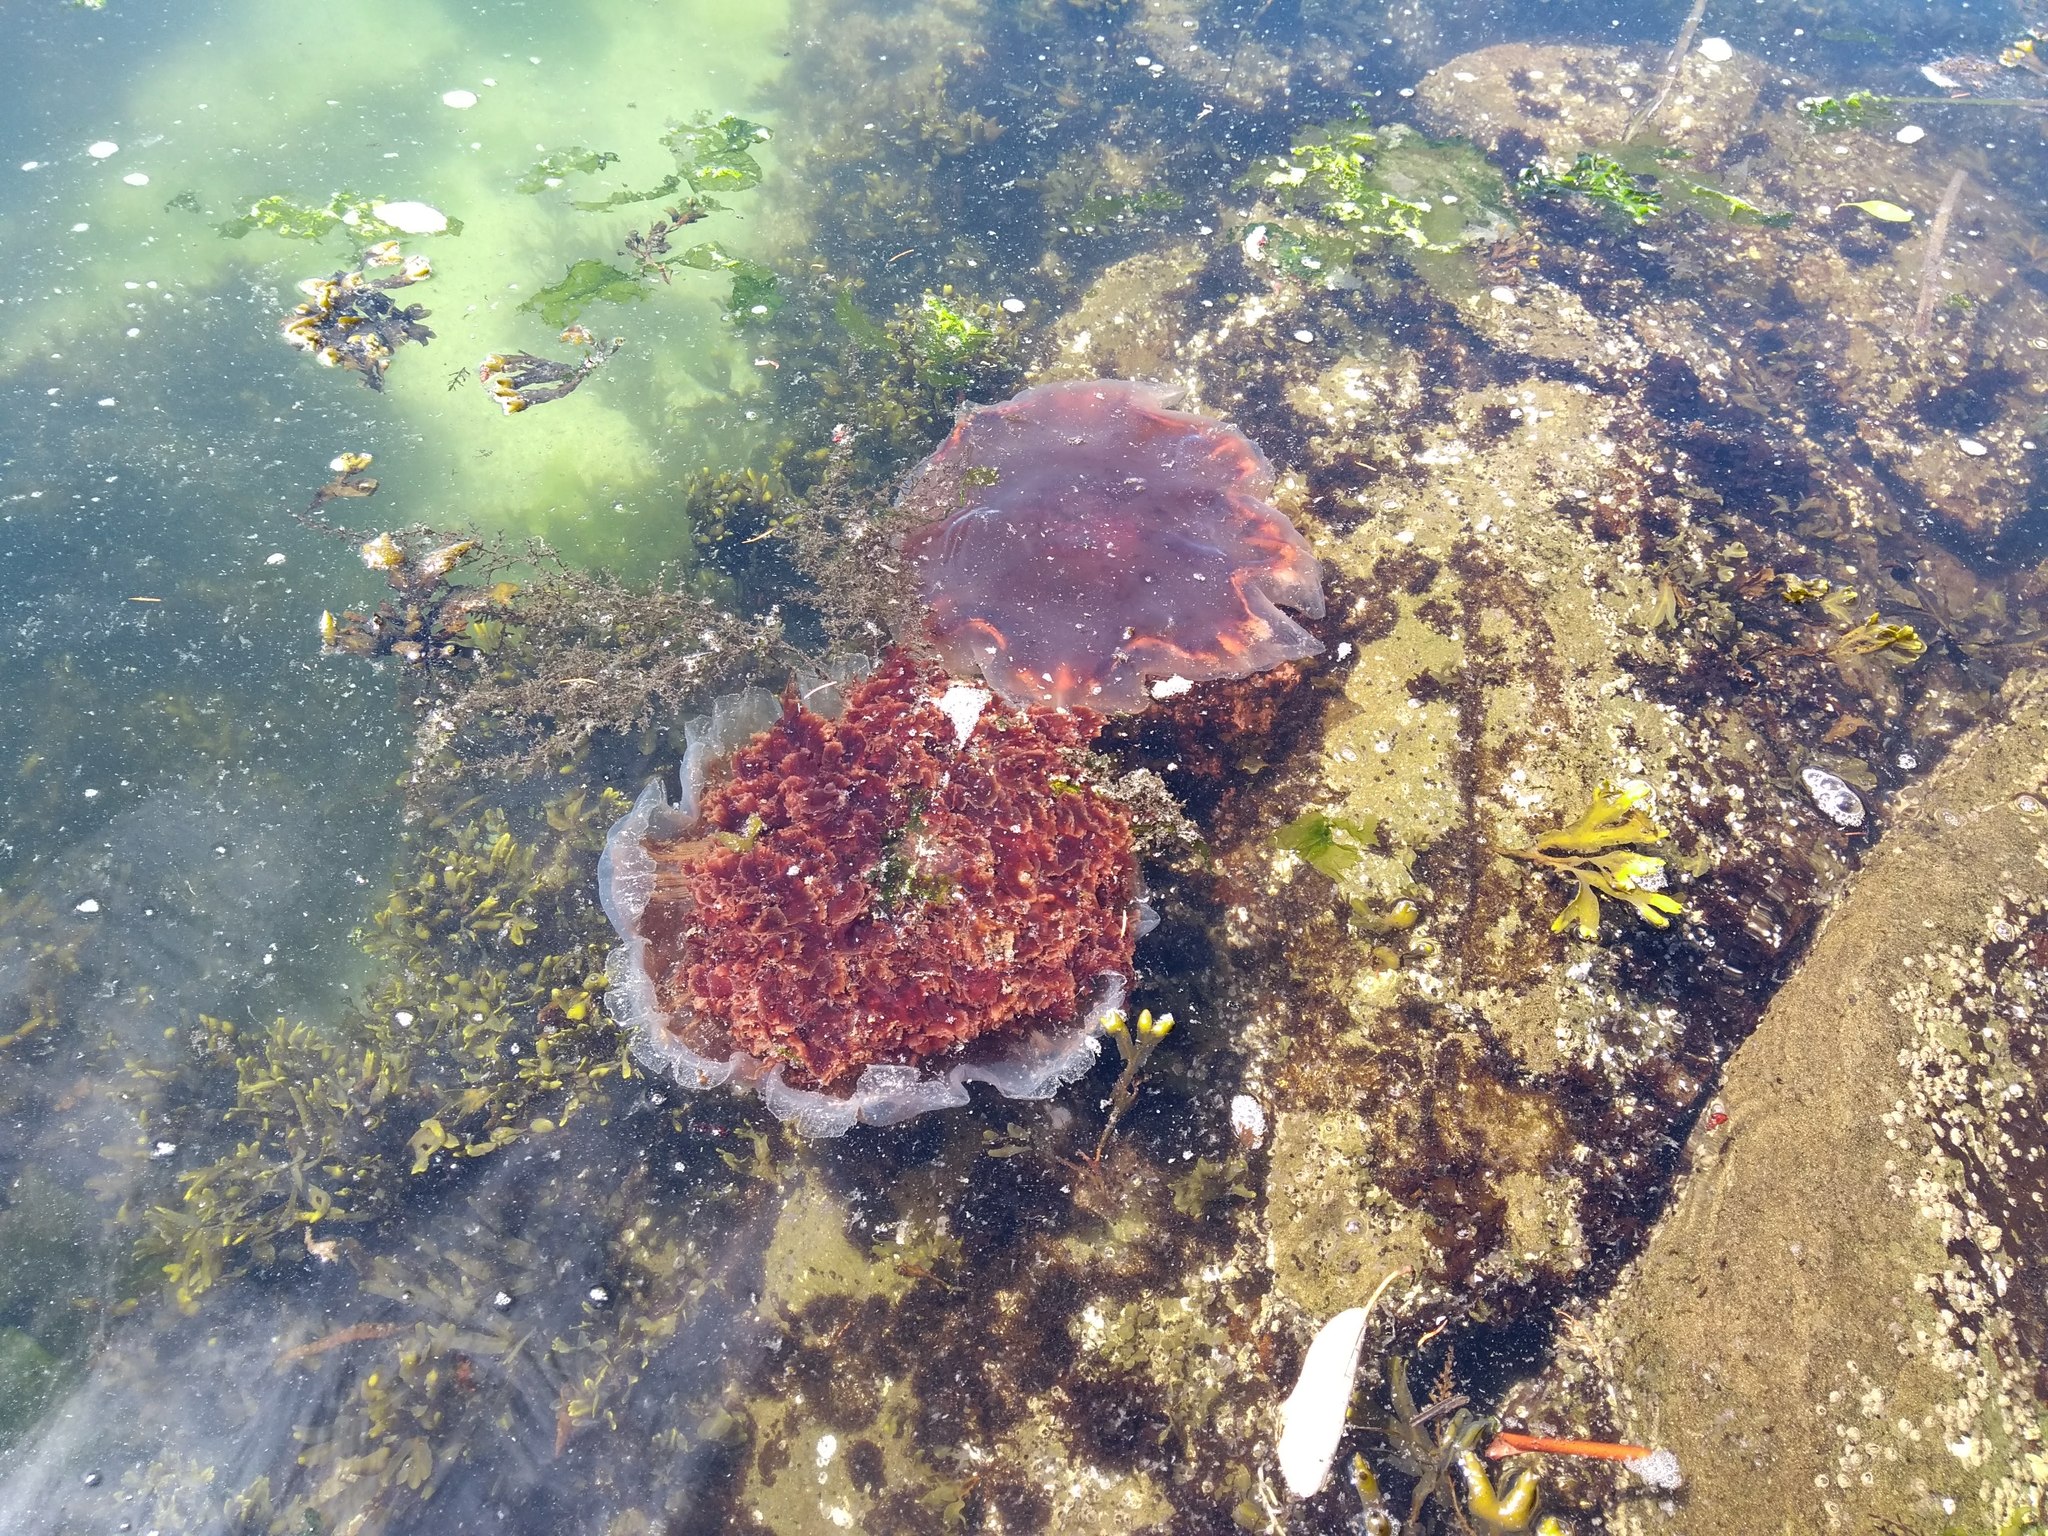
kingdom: Animalia
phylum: Cnidaria
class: Scyphozoa
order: Semaeostomeae
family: Cyaneidae
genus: Cyanea
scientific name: Cyanea ferruginea
